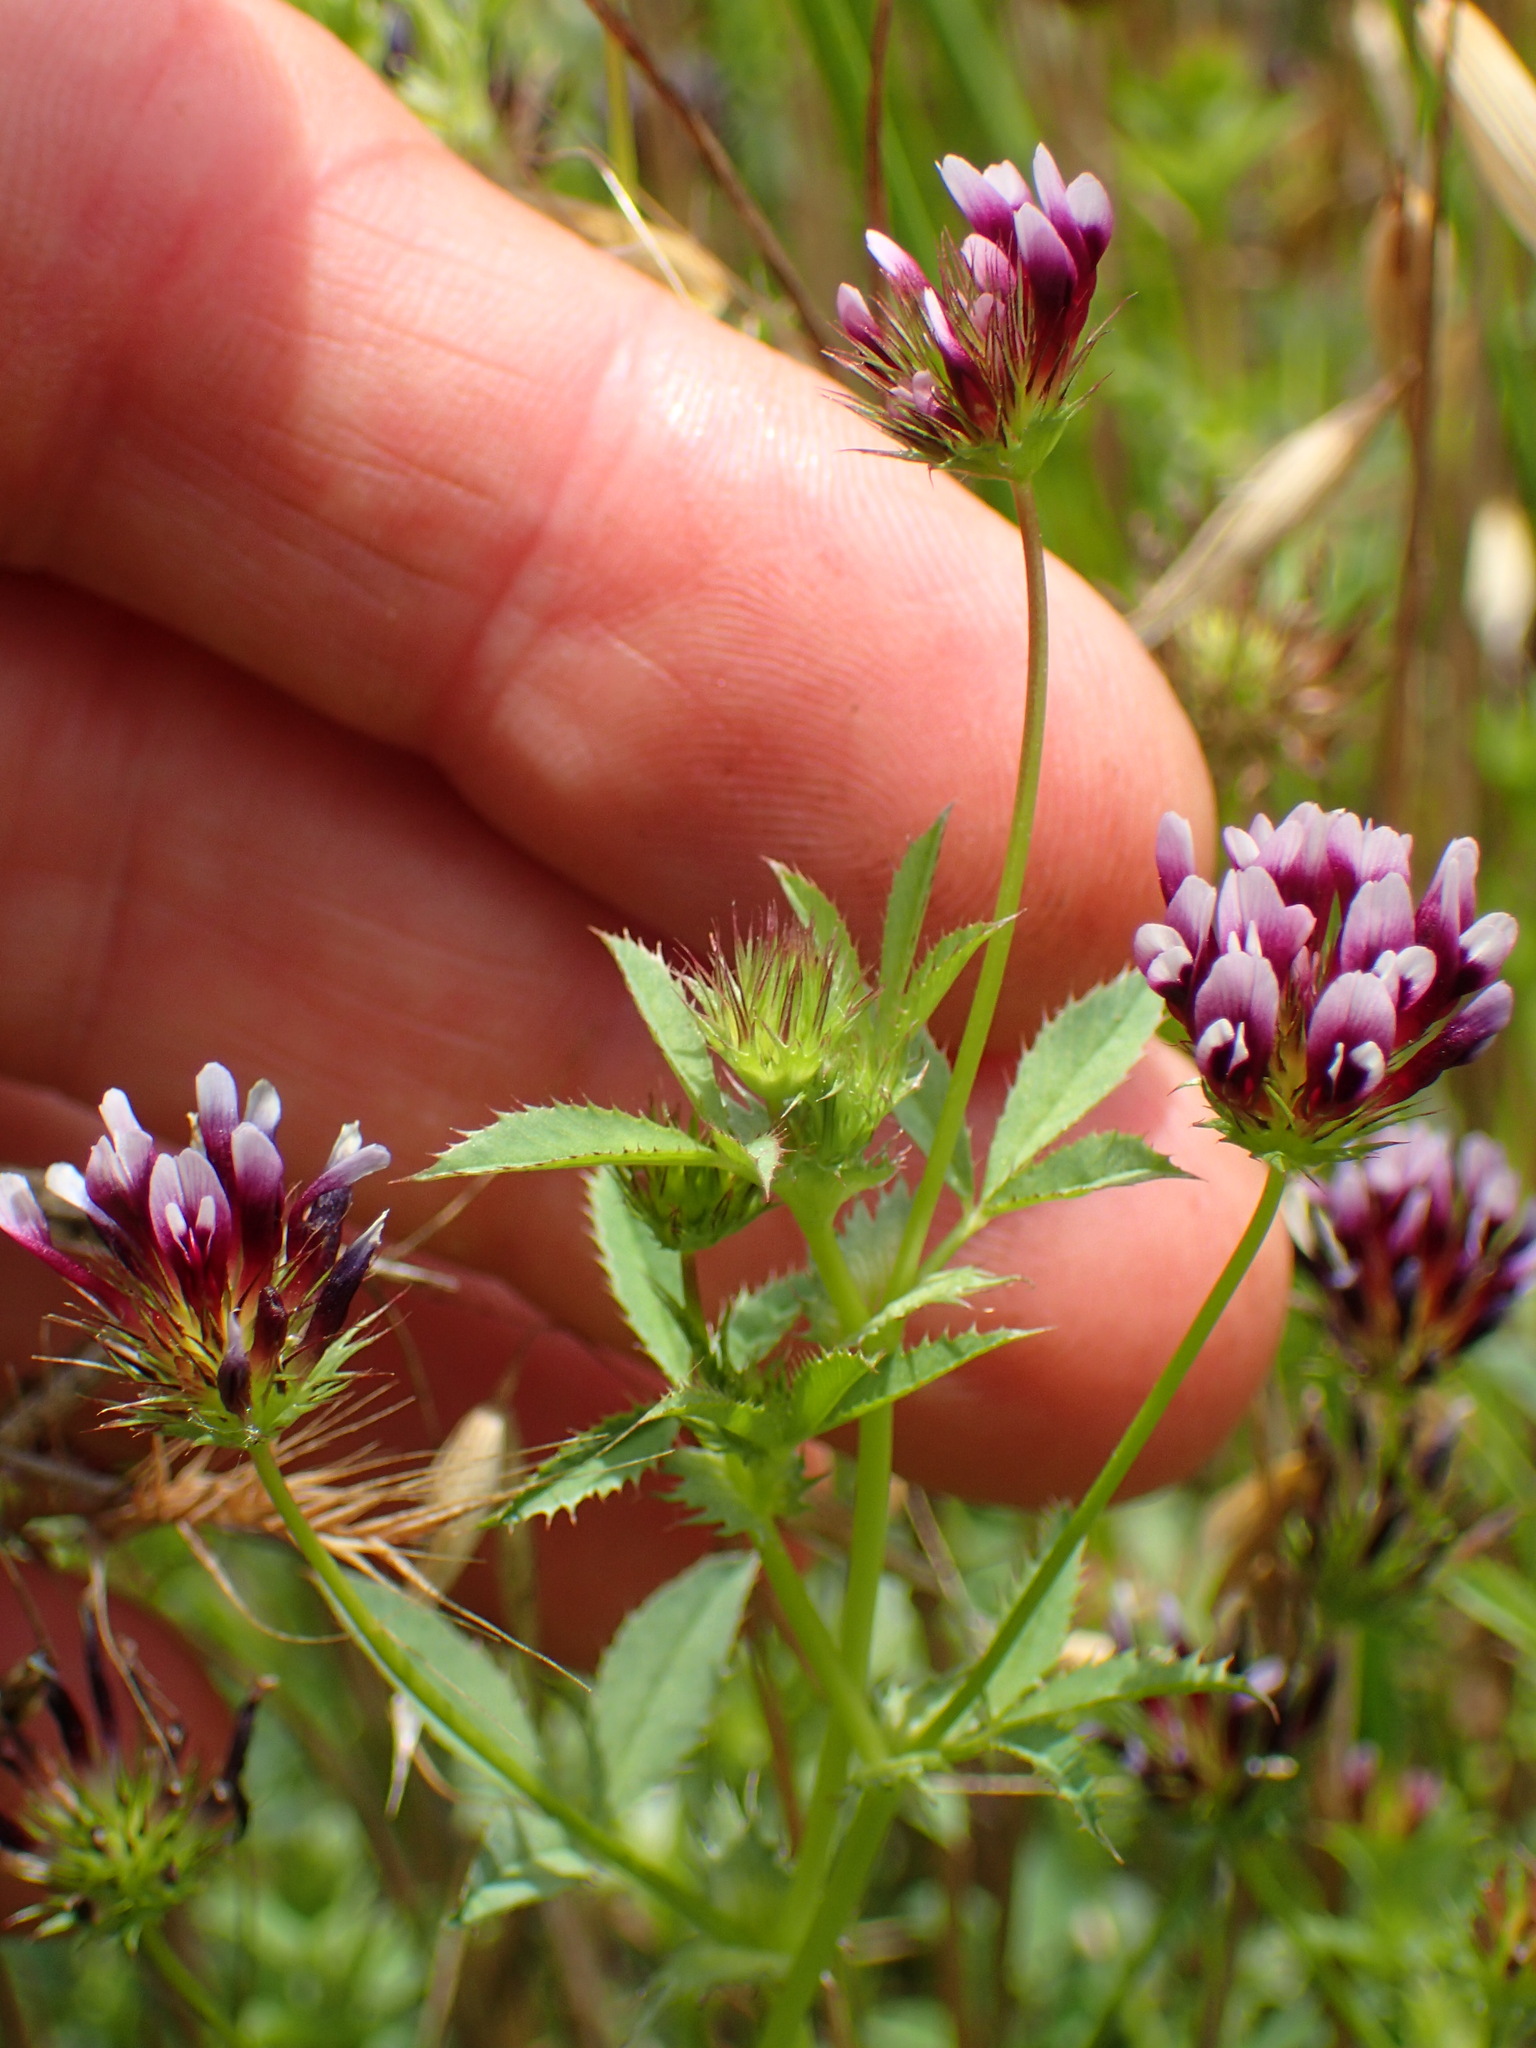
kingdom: Plantae
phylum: Tracheophyta
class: Magnoliopsida
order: Fabales
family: Fabaceae
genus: Trifolium
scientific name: Trifolium variegatum
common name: Whitetip clover
